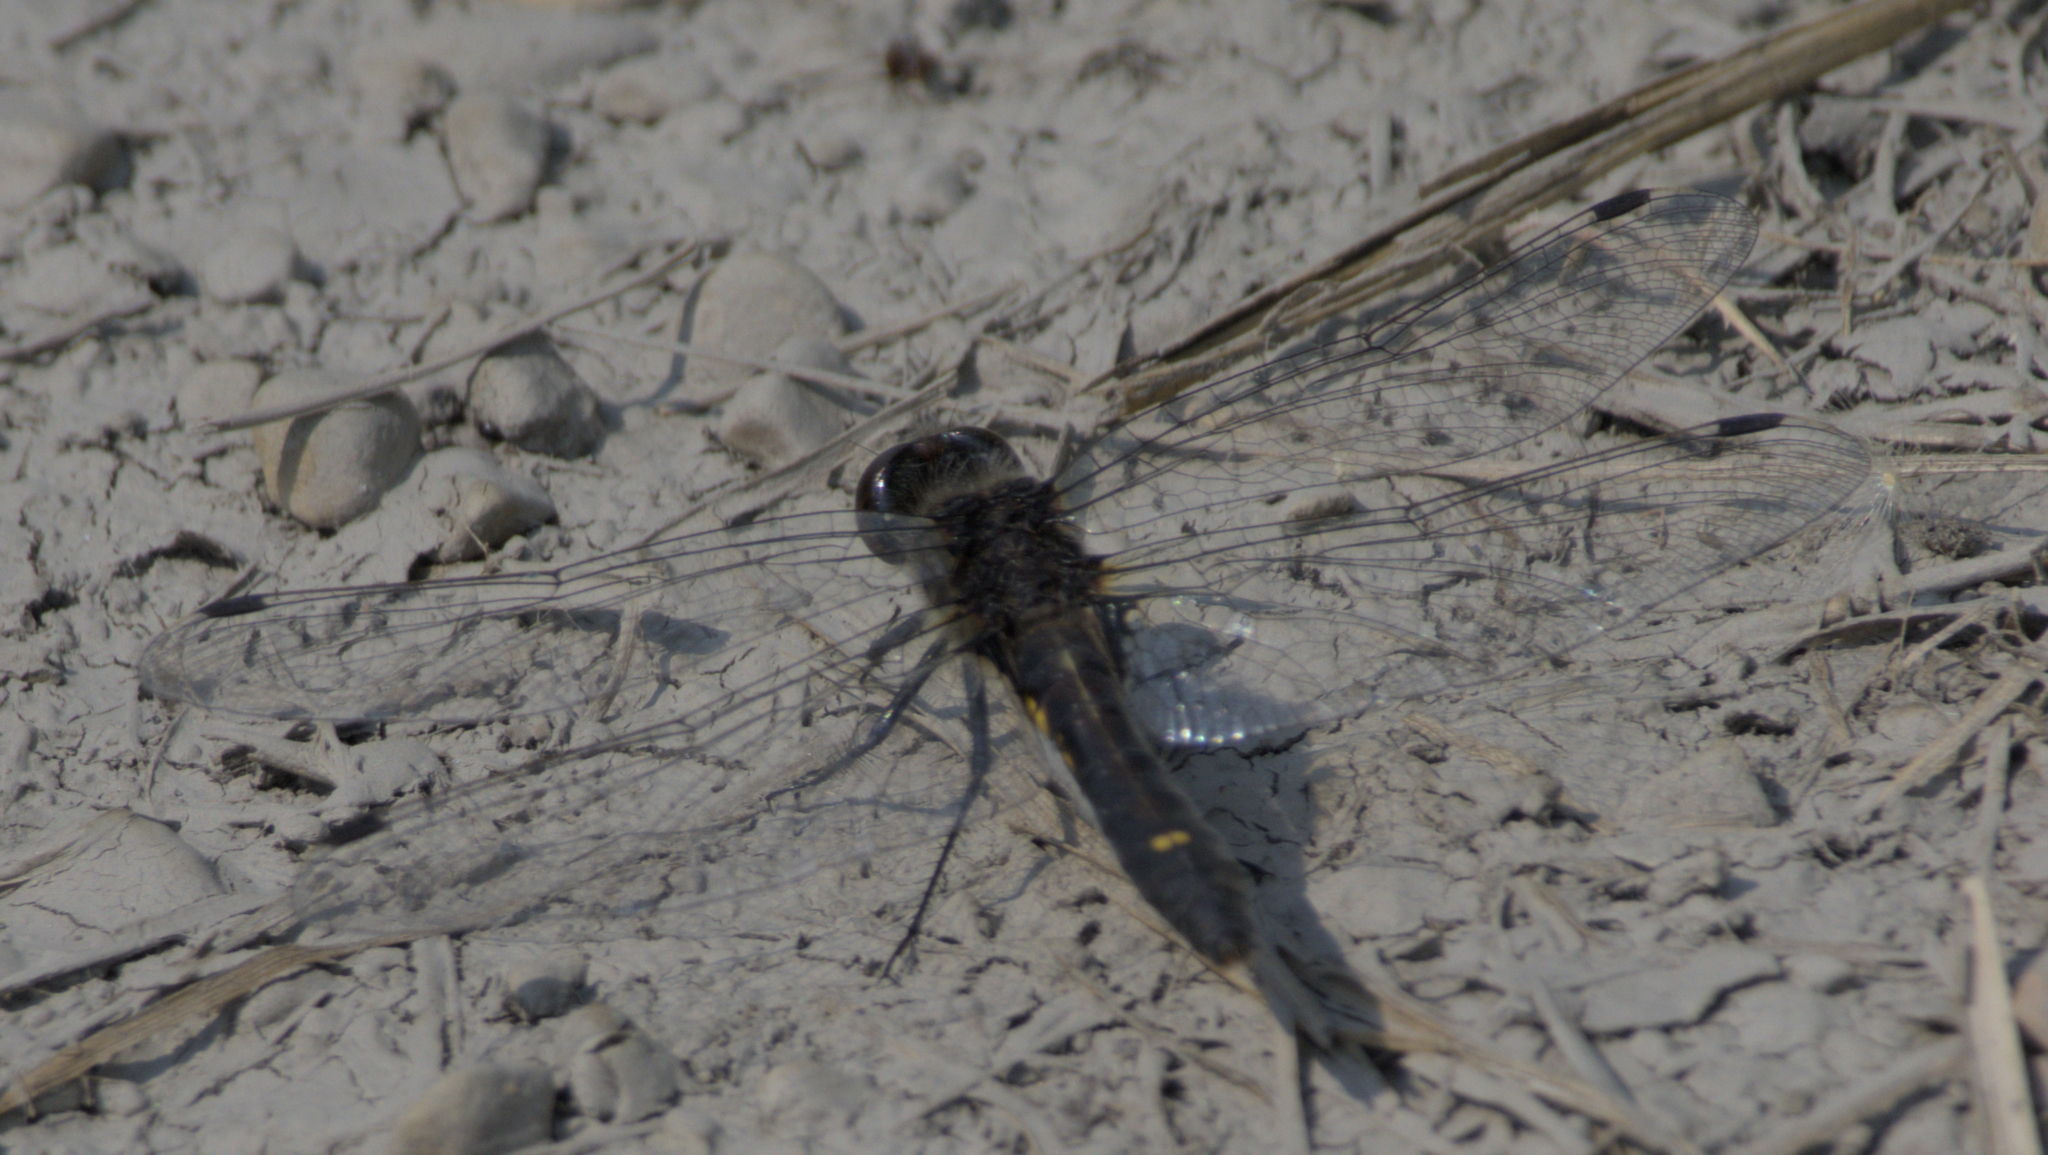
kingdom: Animalia
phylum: Arthropoda
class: Insecta
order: Odonata
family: Libellulidae
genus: Leucorrhinia
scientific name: Leucorrhinia intacta
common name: Dot-tailed whiteface
